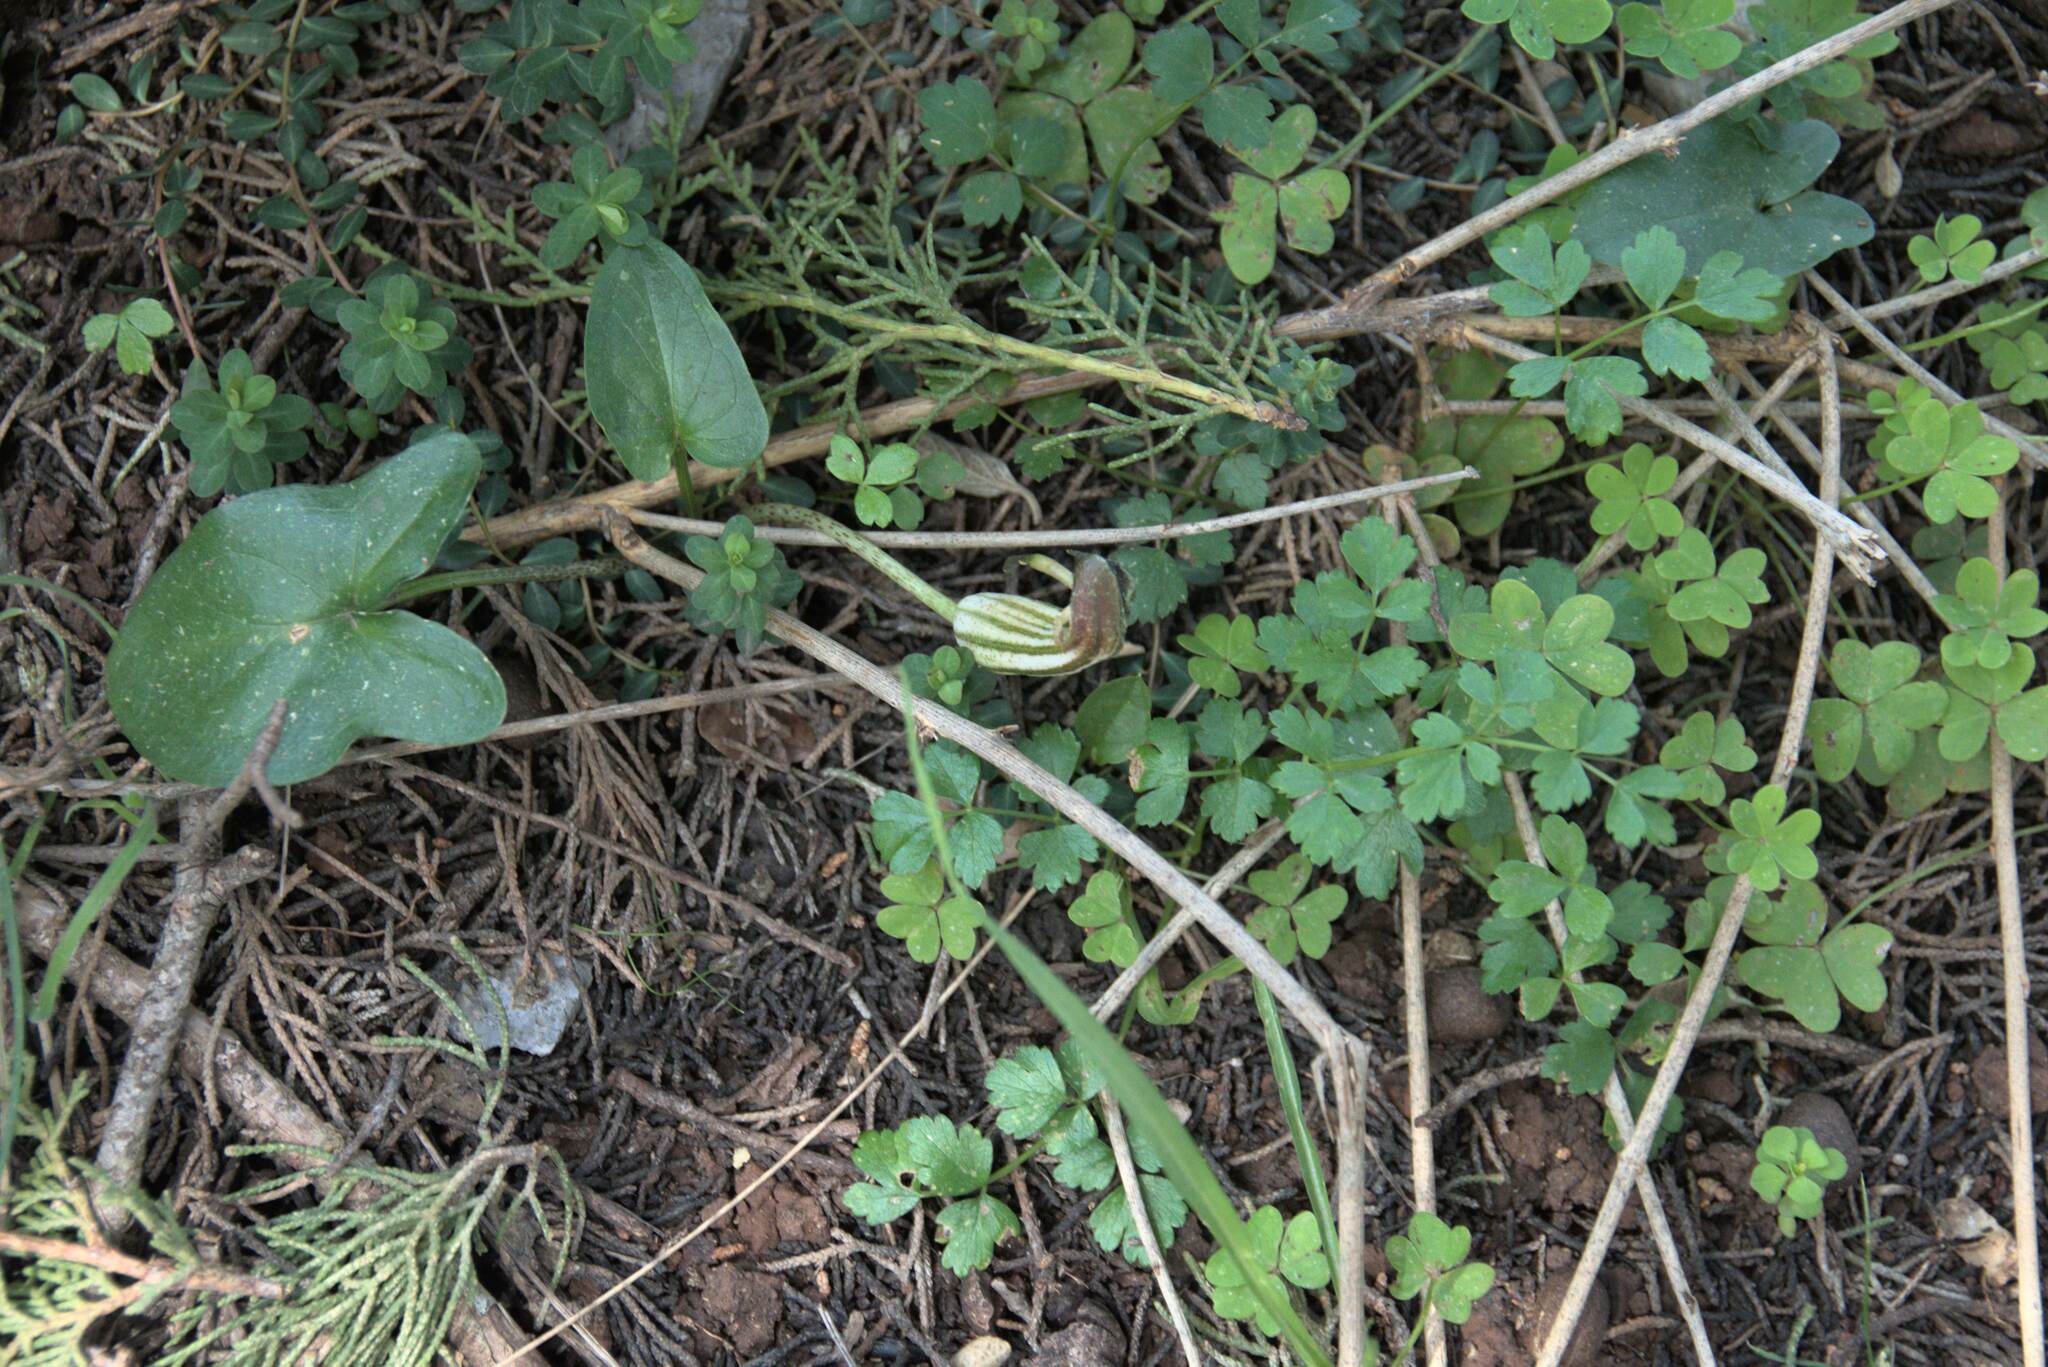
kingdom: Plantae
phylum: Tracheophyta
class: Liliopsida
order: Alismatales
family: Araceae
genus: Arisarum
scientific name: Arisarum vulgare
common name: Common arisarum
